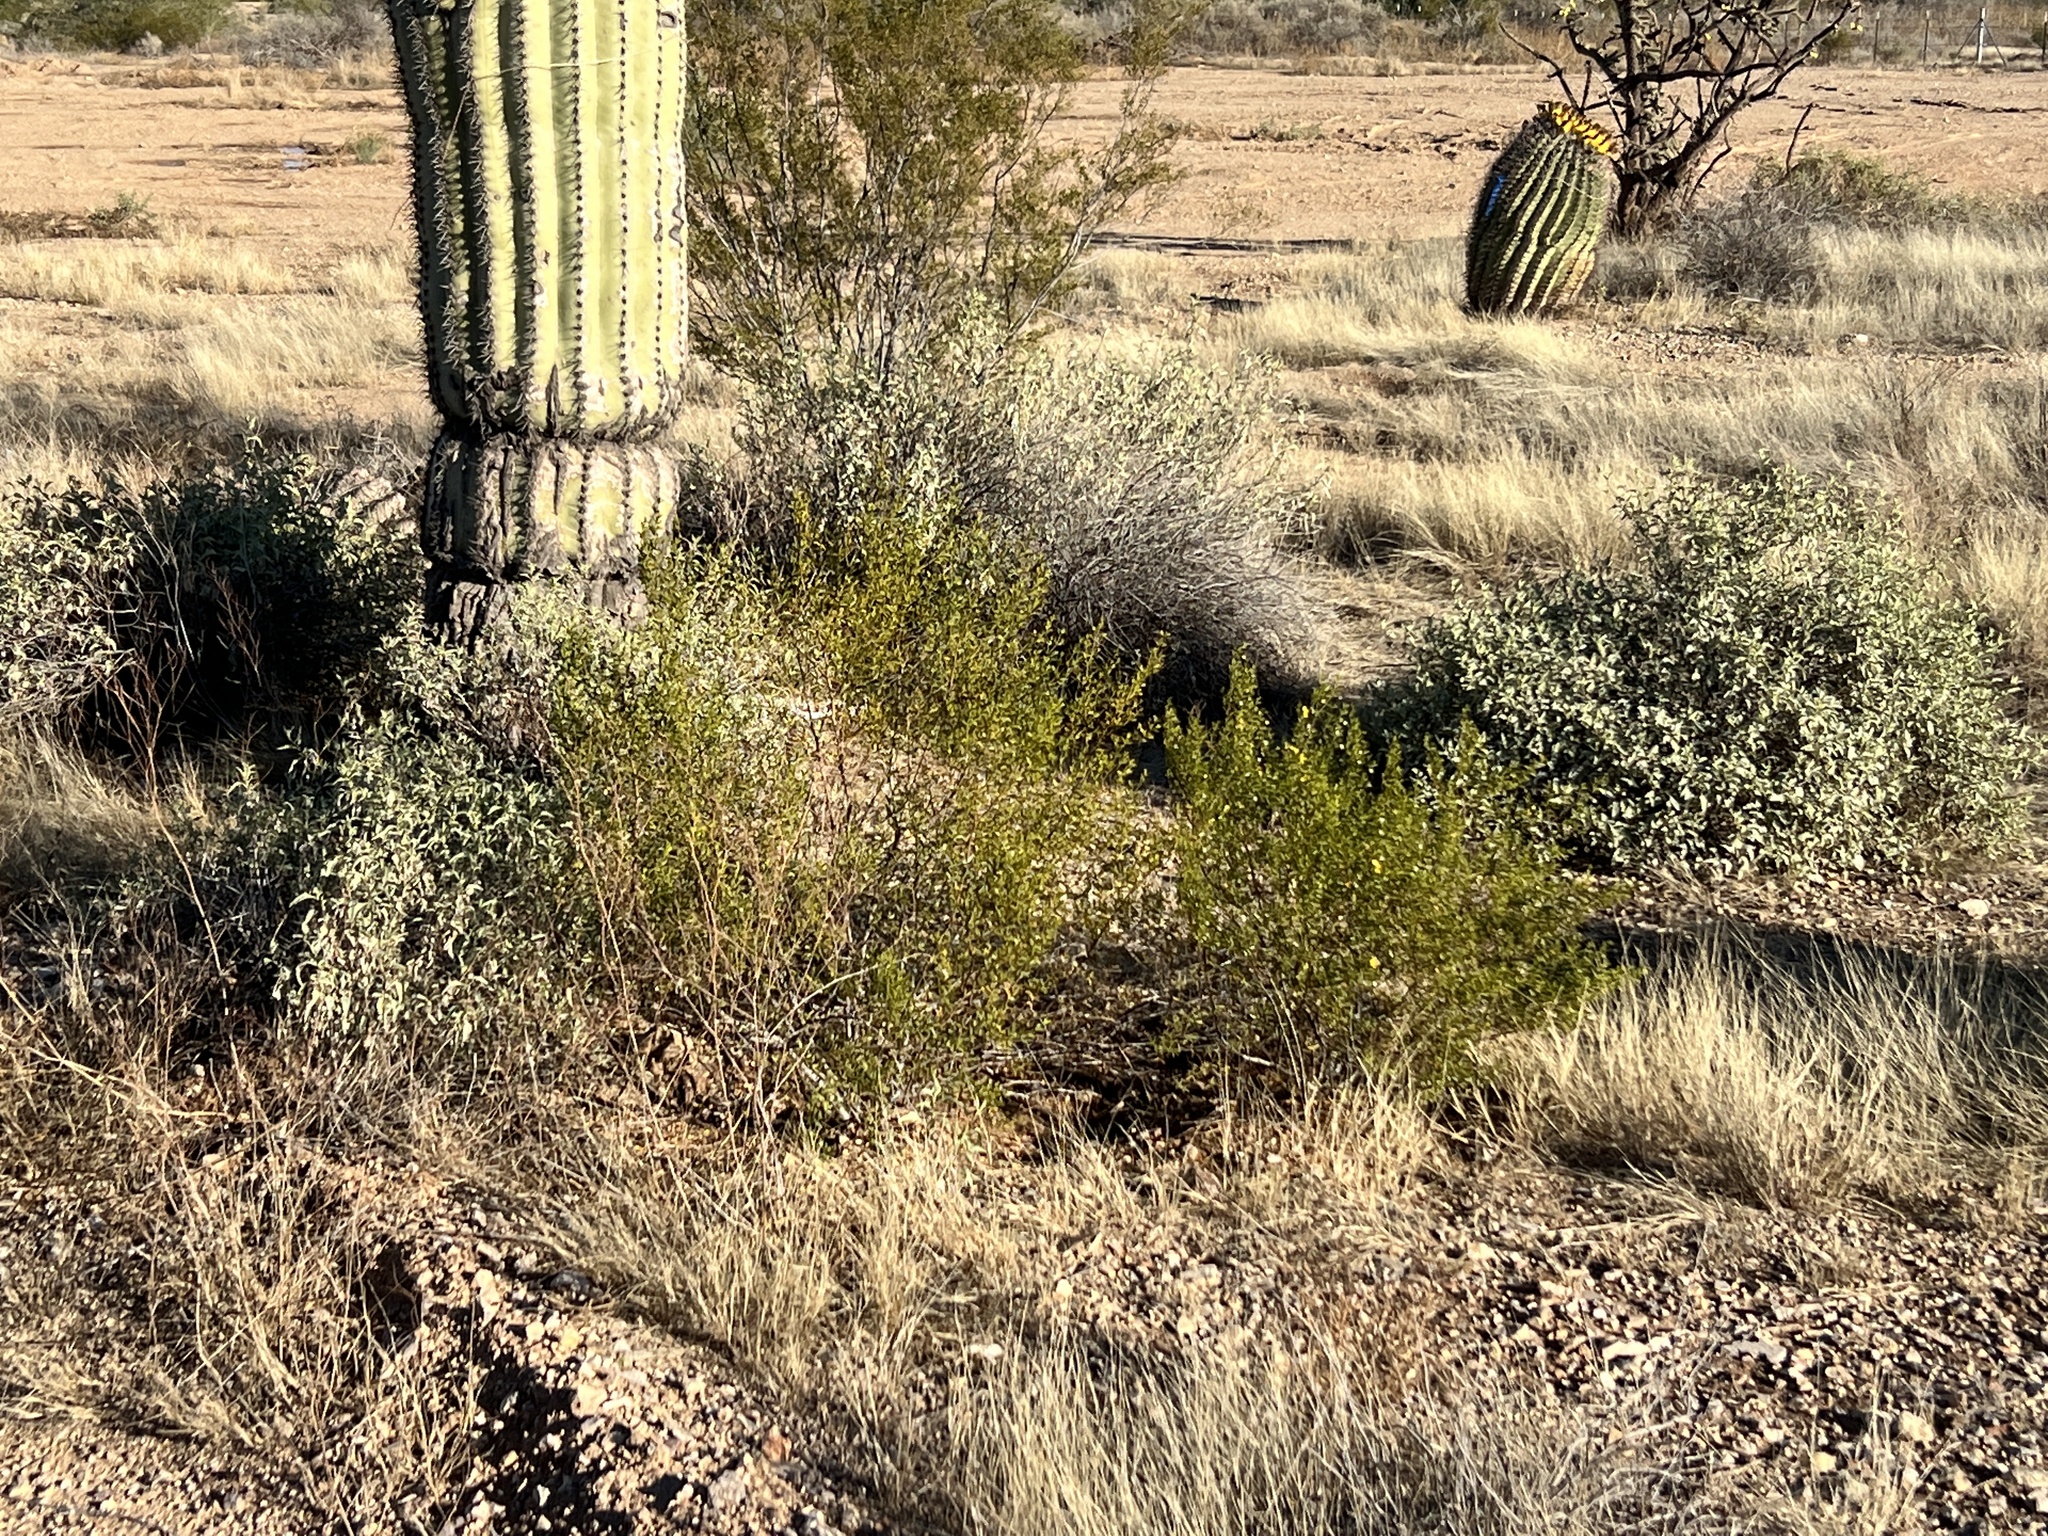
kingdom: Plantae
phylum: Tracheophyta
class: Magnoliopsida
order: Zygophyllales
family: Zygophyllaceae
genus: Larrea
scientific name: Larrea tridentata
